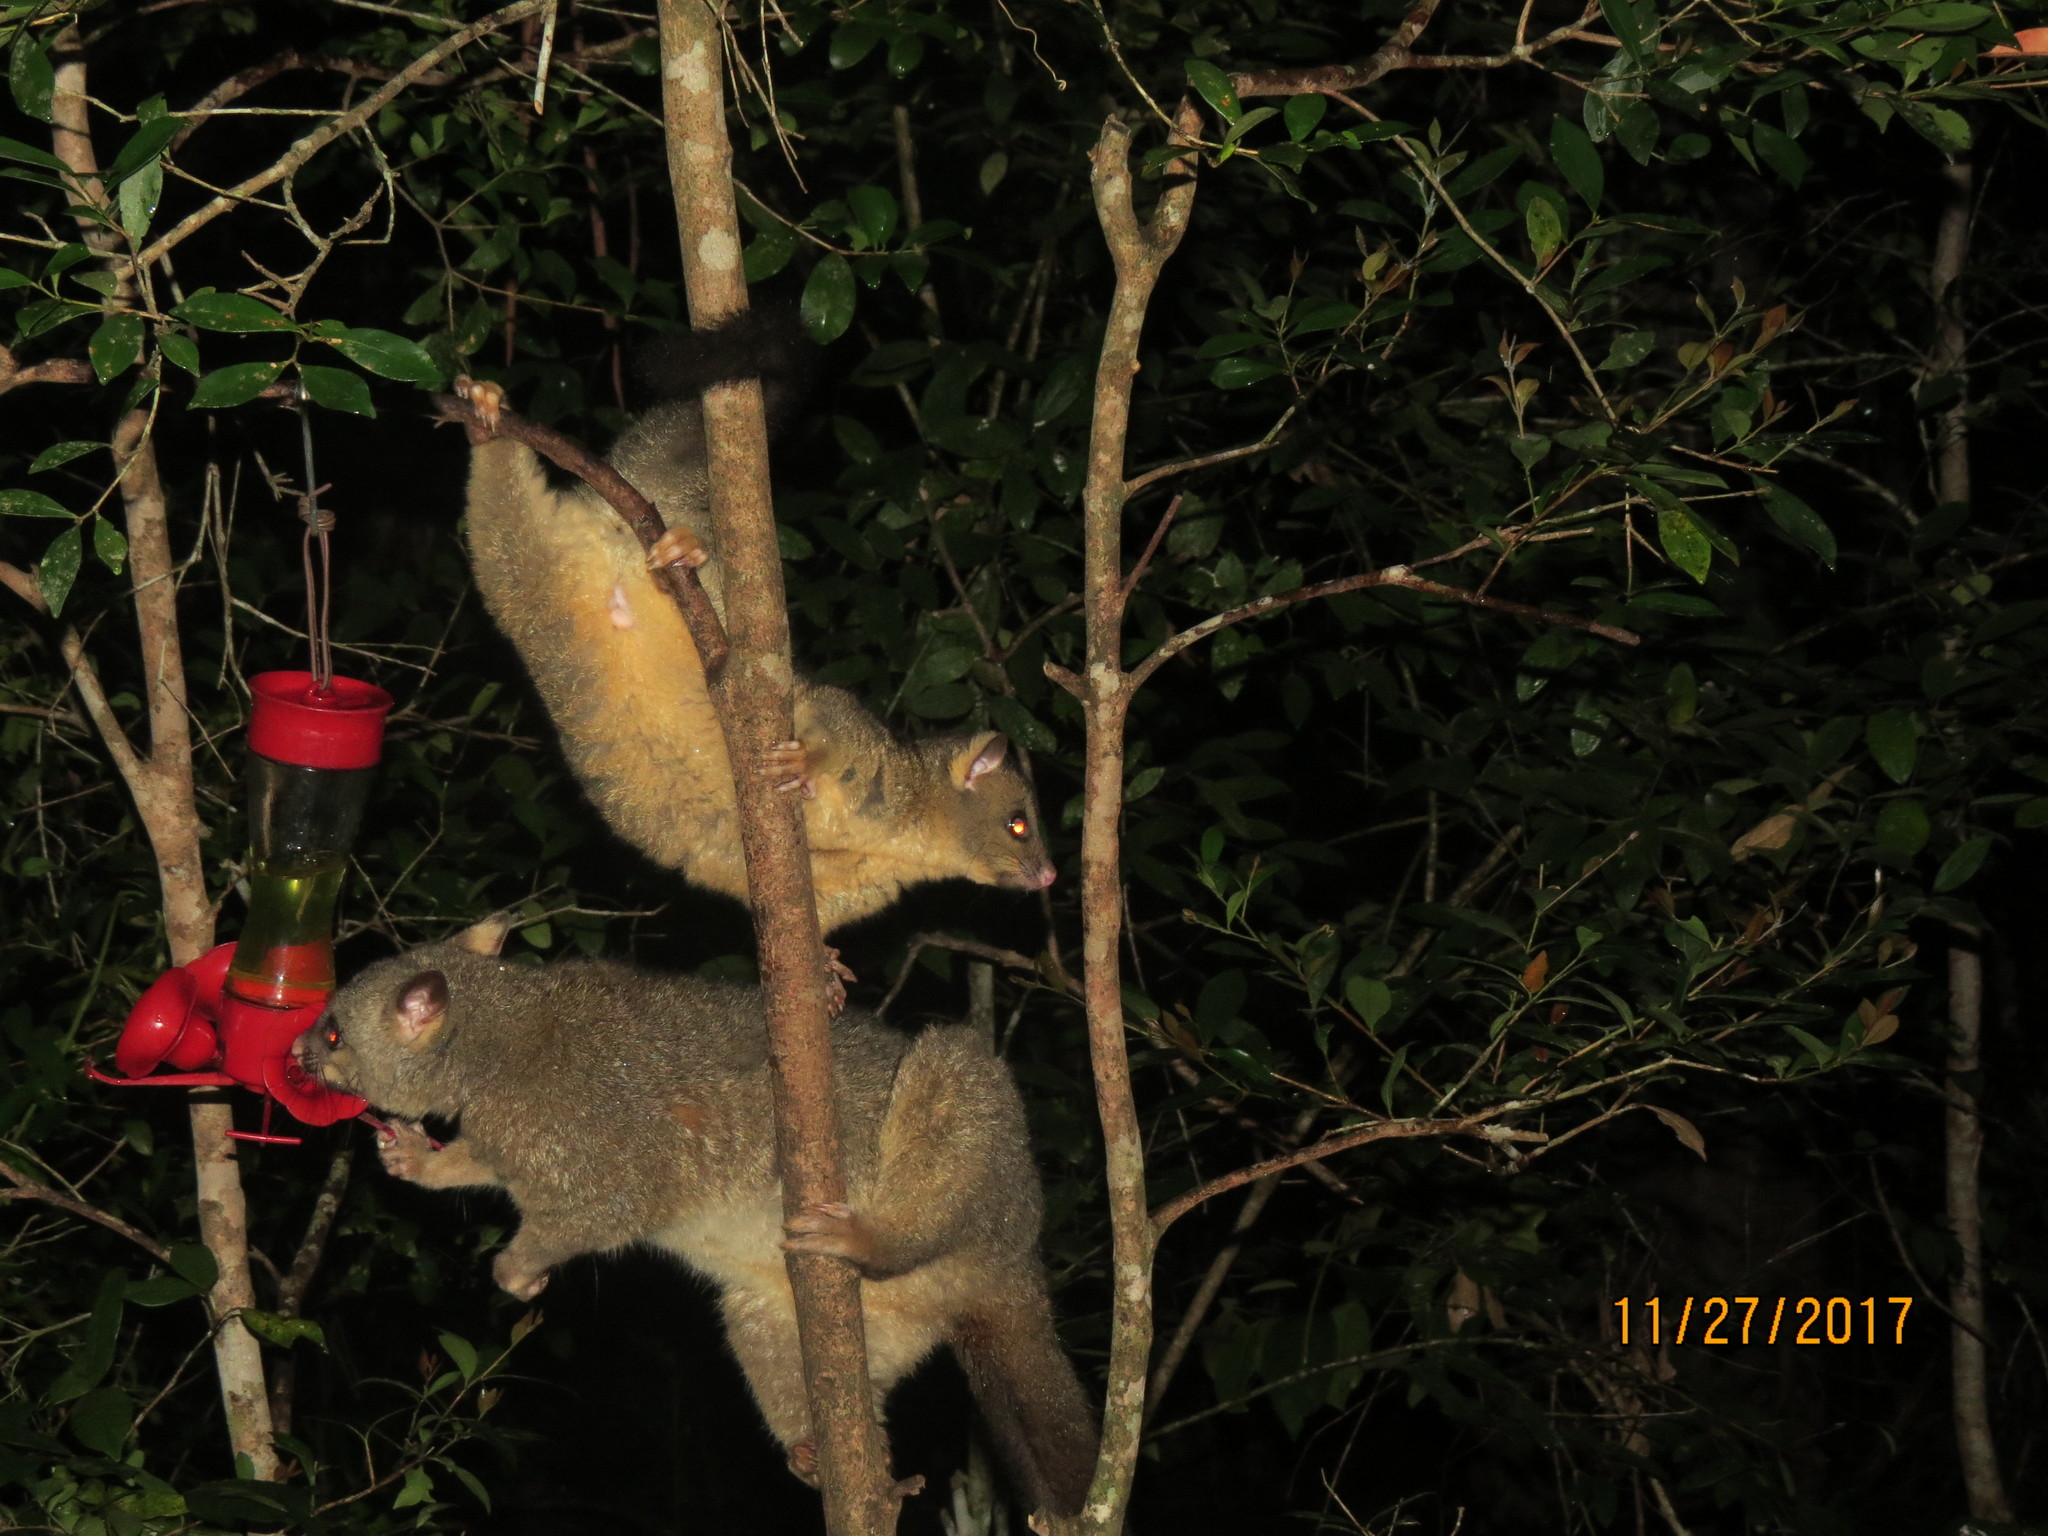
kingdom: Animalia
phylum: Chordata
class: Mammalia
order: Diprotodontia
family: Phalangeridae
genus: Trichosurus
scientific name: Trichosurus vulpecula
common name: Common brushtail
